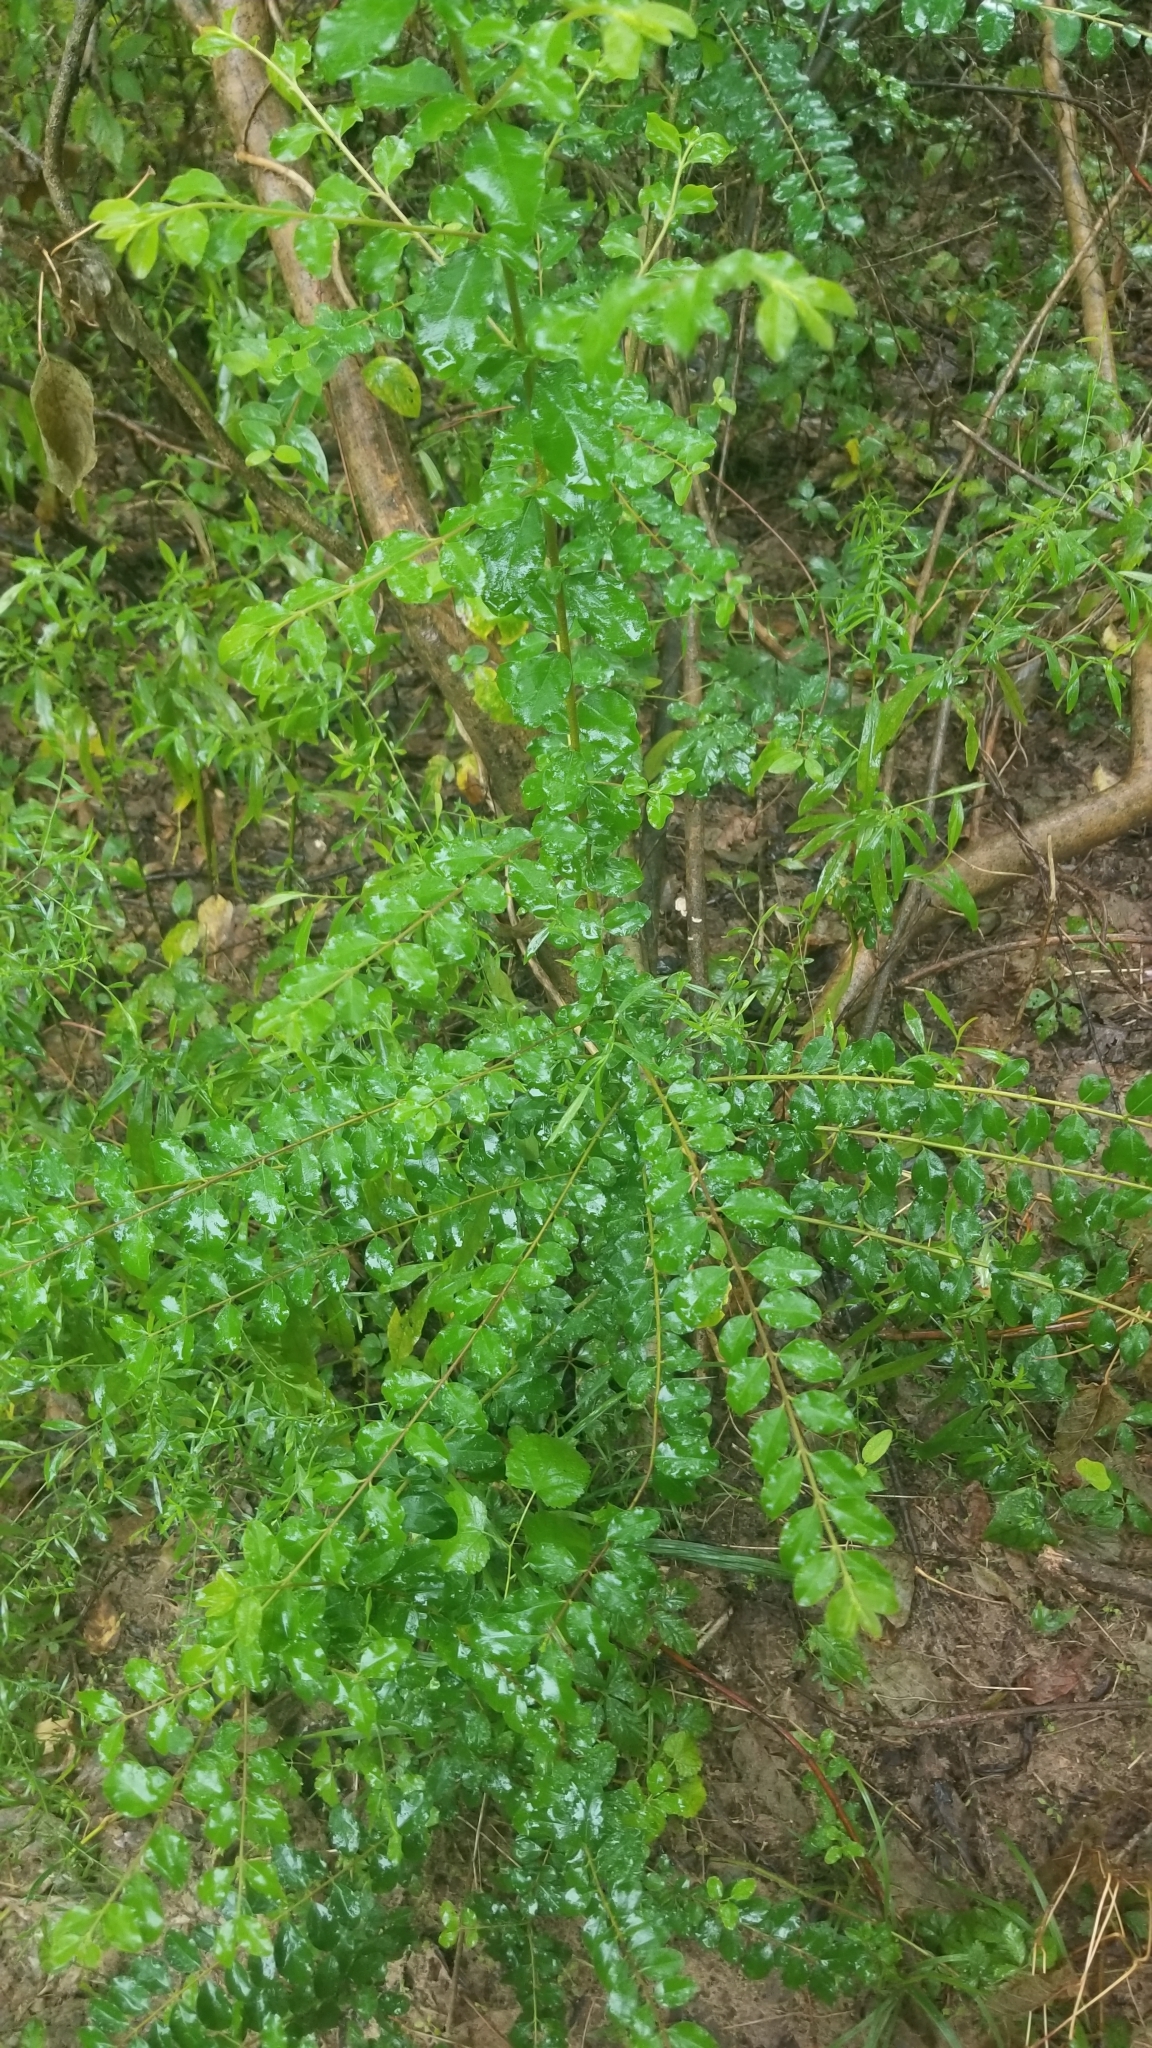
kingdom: Plantae
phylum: Tracheophyta
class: Magnoliopsida
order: Lamiales
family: Oleaceae
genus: Ligustrum
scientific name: Ligustrum sinense
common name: Chinese privet
